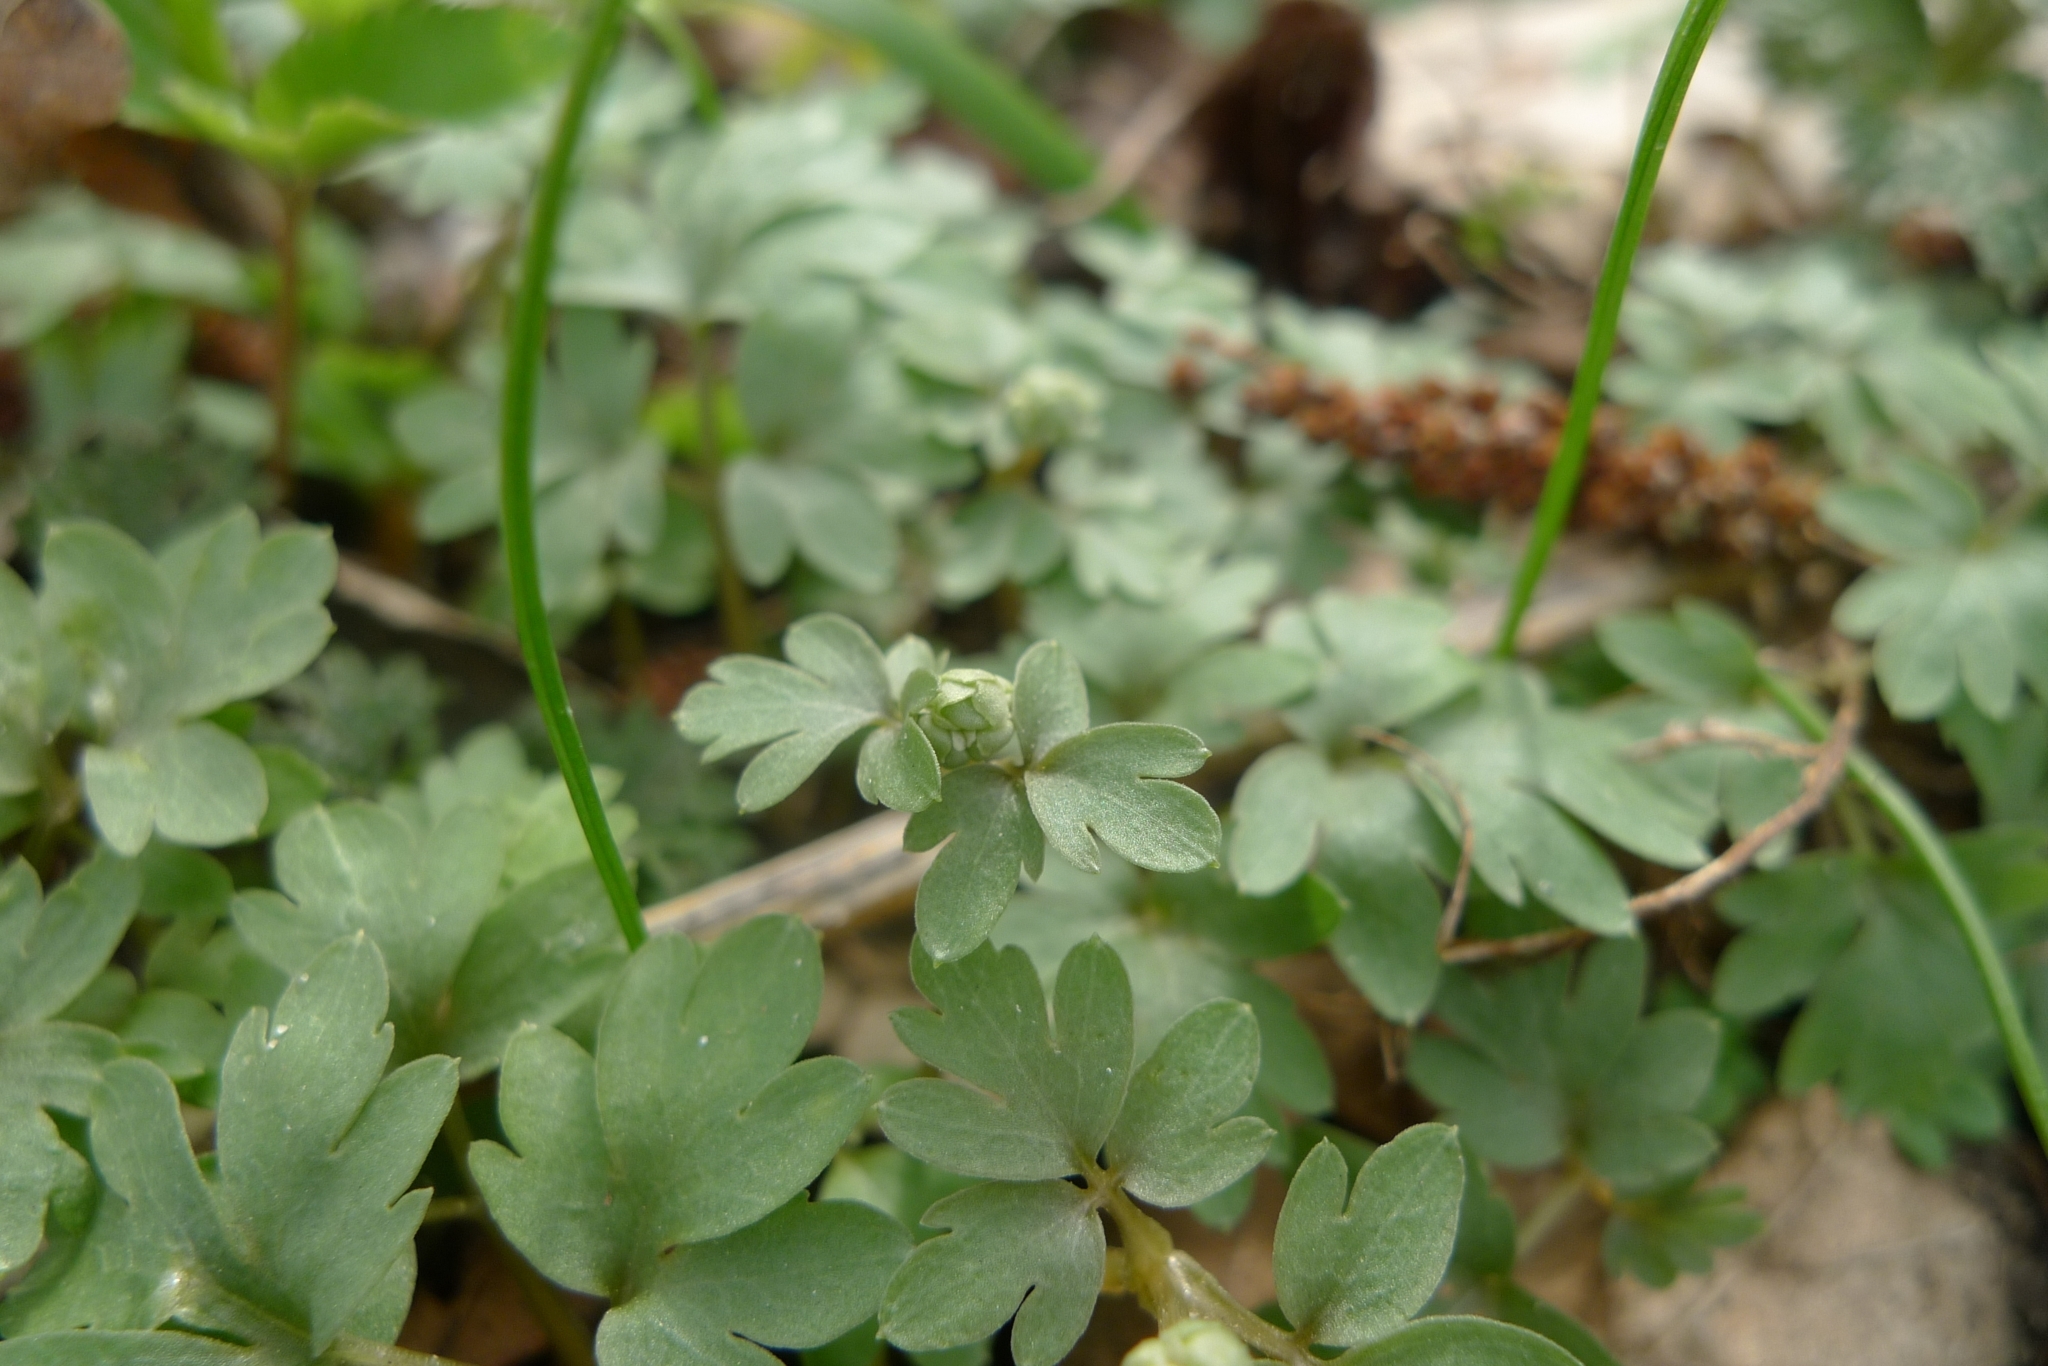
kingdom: Plantae
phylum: Tracheophyta
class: Magnoliopsida
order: Dipsacales
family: Viburnaceae
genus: Adoxa
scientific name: Adoxa moschatellina
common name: Moschatel
